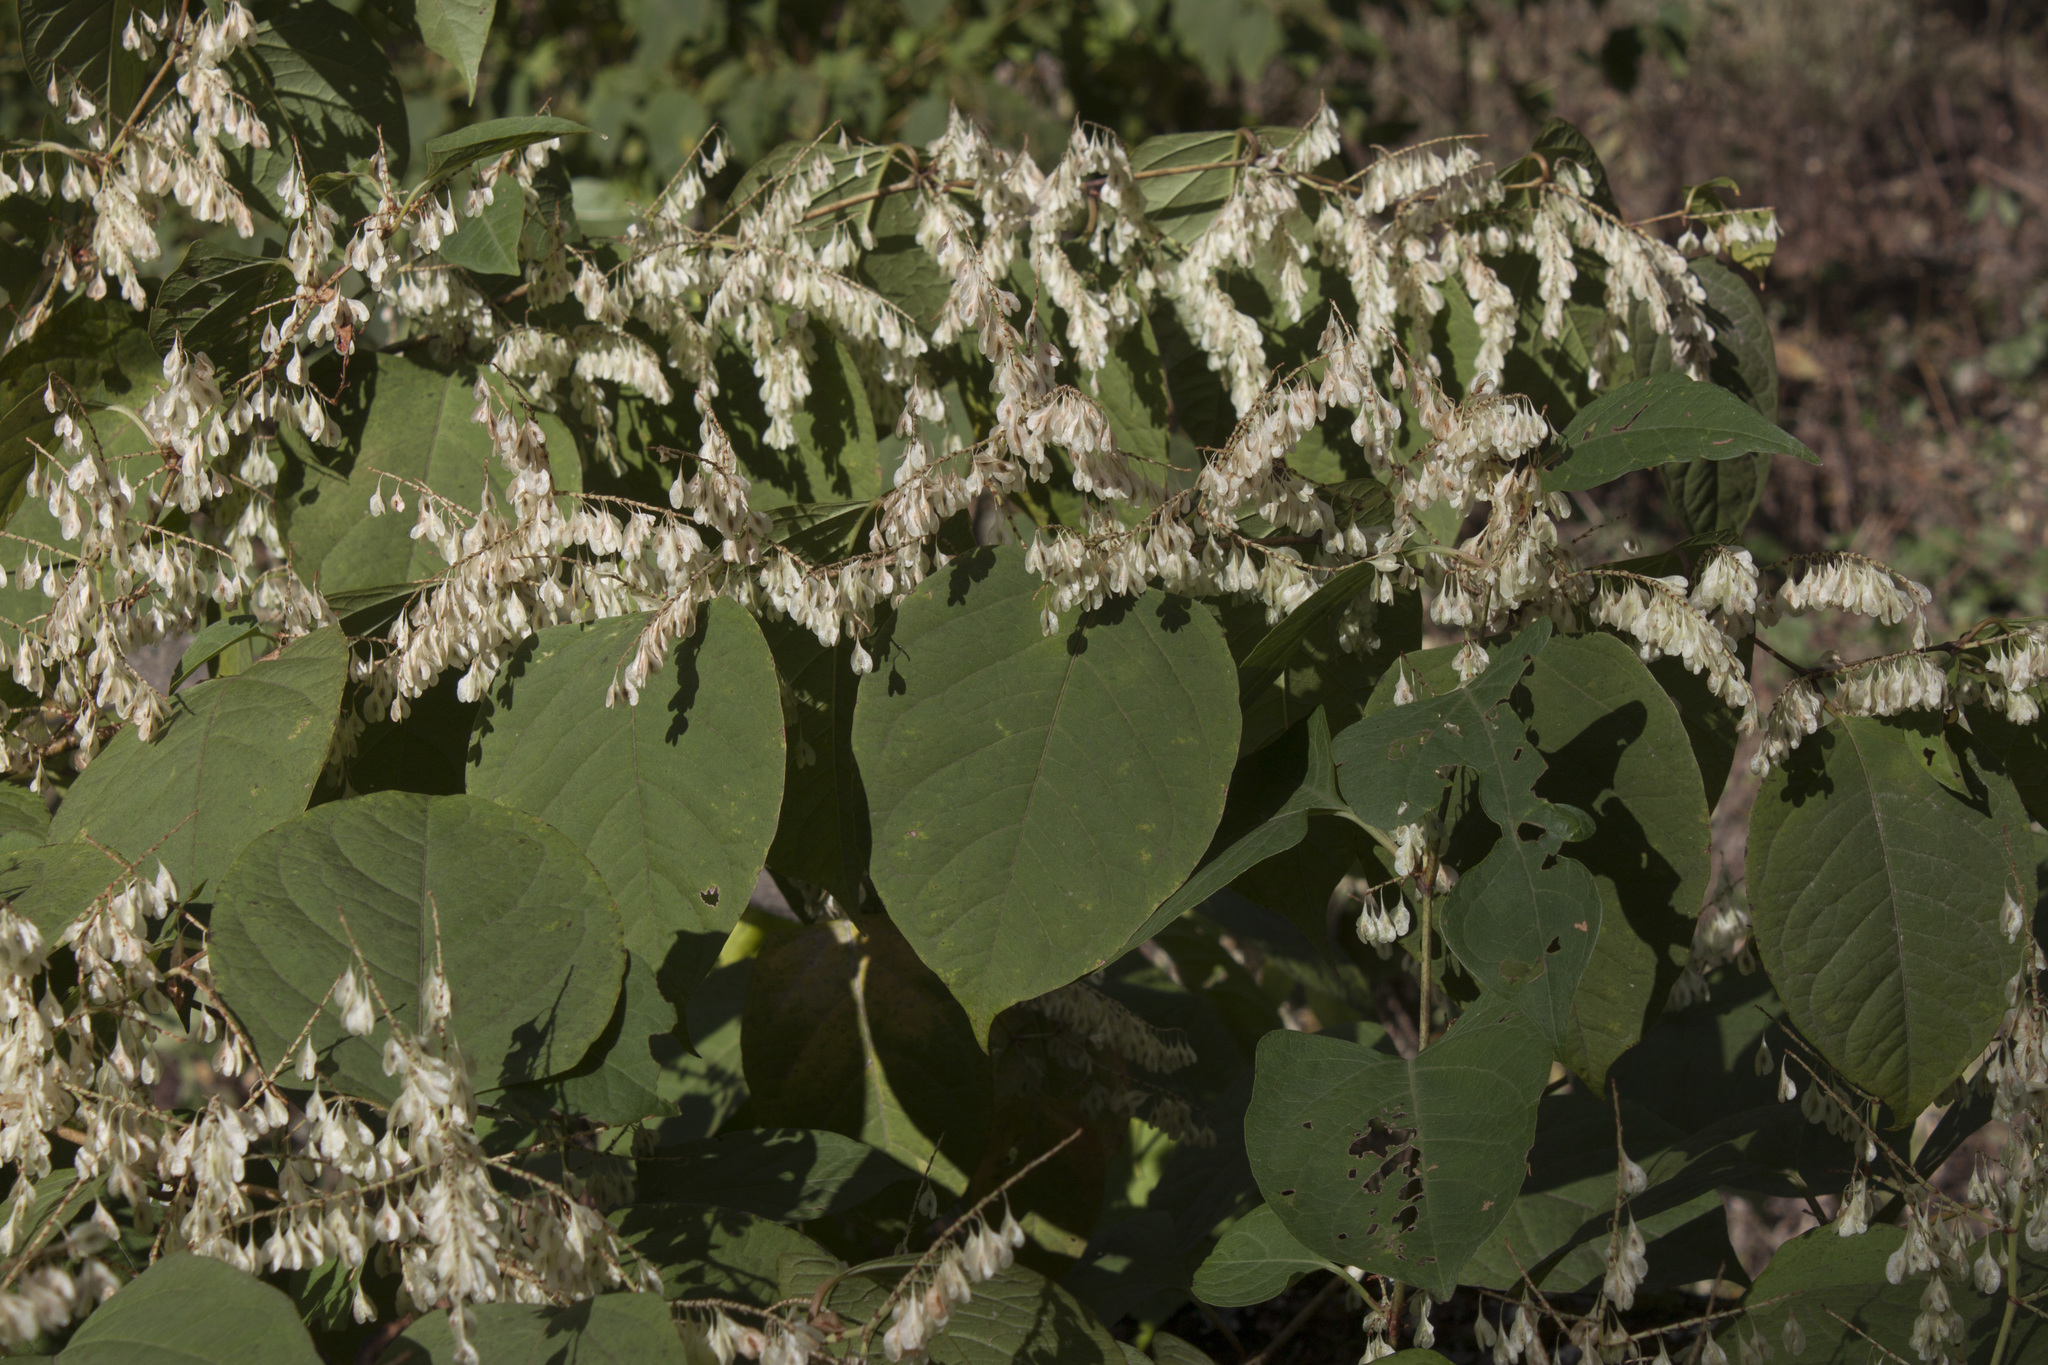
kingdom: Plantae
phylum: Tracheophyta
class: Magnoliopsida
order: Caryophyllales
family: Polygonaceae
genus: Reynoutria
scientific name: Reynoutria japonica
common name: Japanese knotweed
